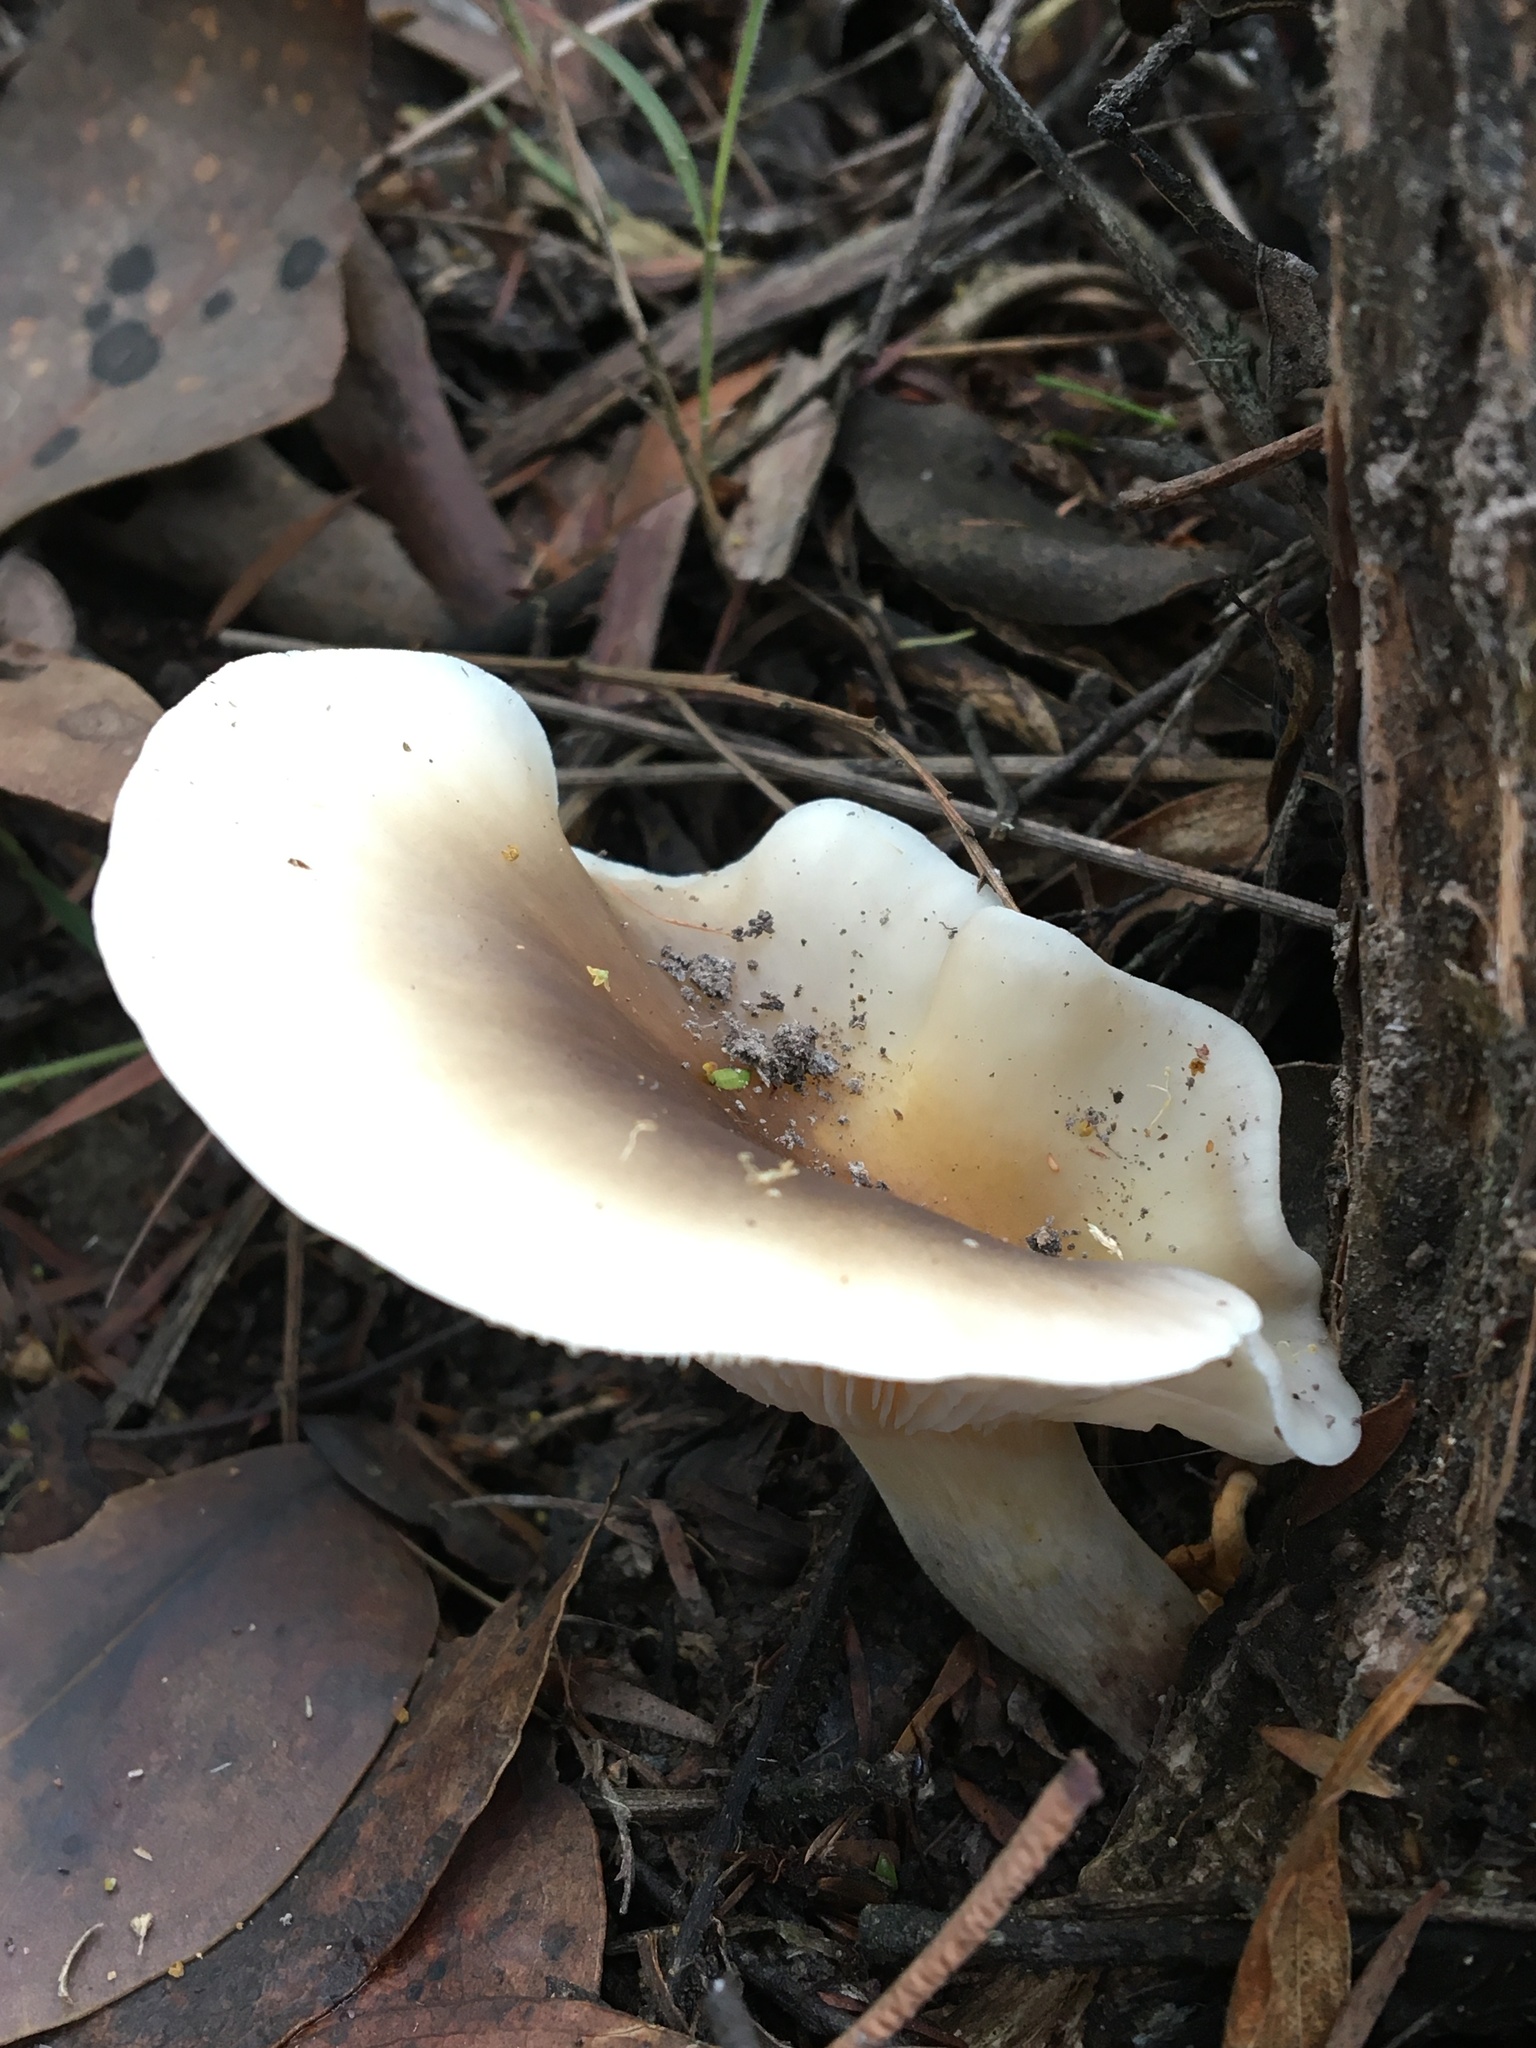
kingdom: Fungi
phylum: Basidiomycota
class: Agaricomycetes
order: Agaricales
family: Omphalotaceae
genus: Omphalotus
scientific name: Omphalotus nidiformis
